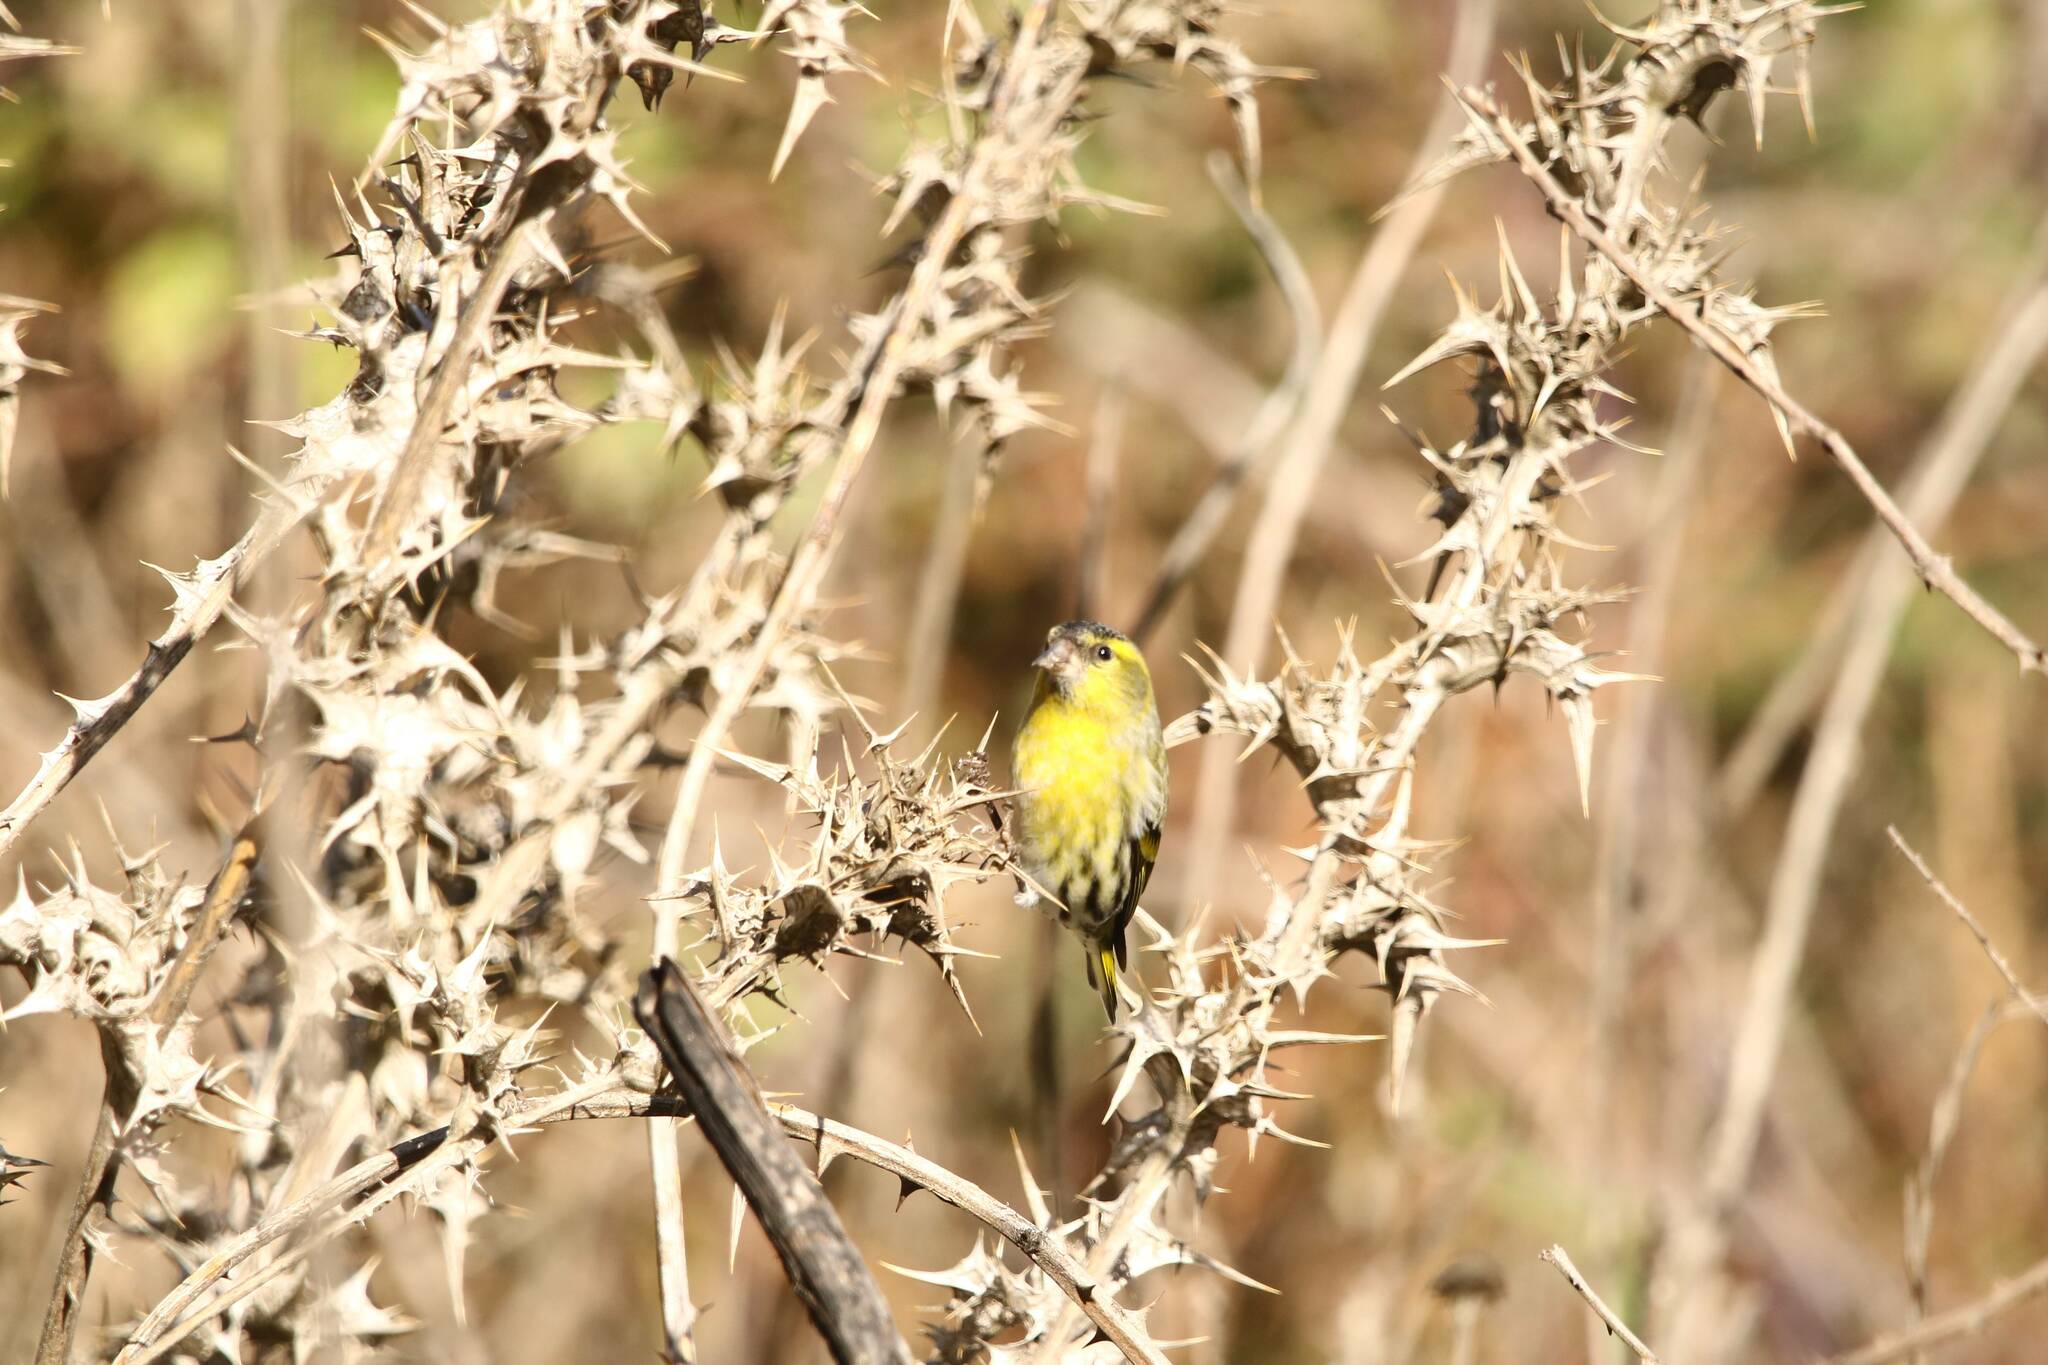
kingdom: Animalia
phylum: Chordata
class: Aves
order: Passeriformes
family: Fringillidae
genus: Spinus
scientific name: Spinus spinus
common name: Eurasian siskin
